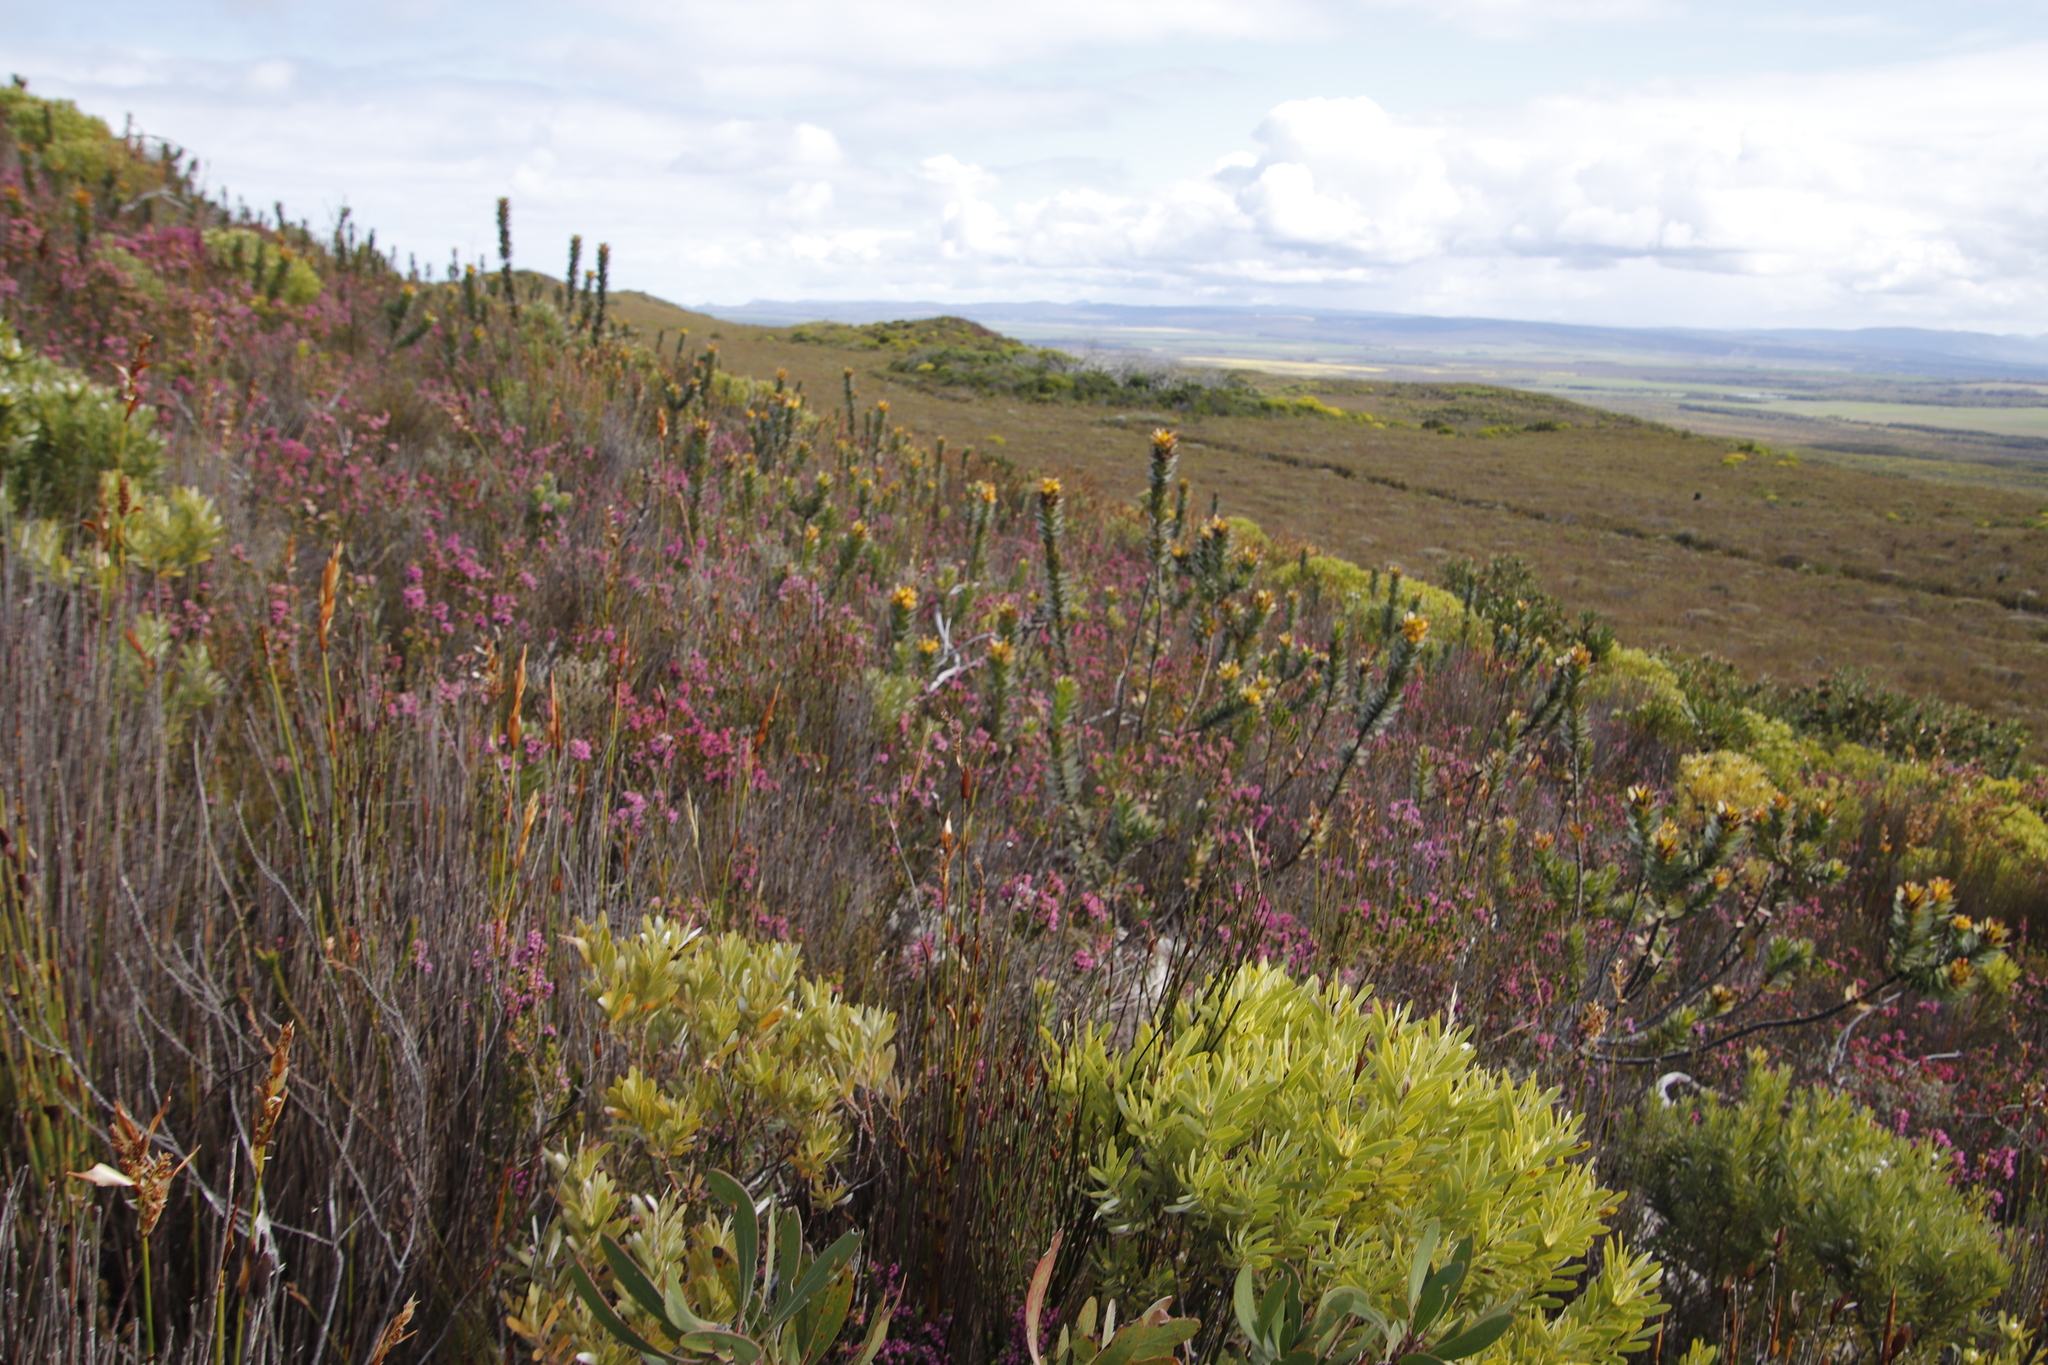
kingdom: Plantae
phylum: Tracheophyta
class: Magnoliopsida
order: Proteales
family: Proteaceae
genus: Mimetes
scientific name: Mimetes saxatilis
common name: Limestone pagoda
